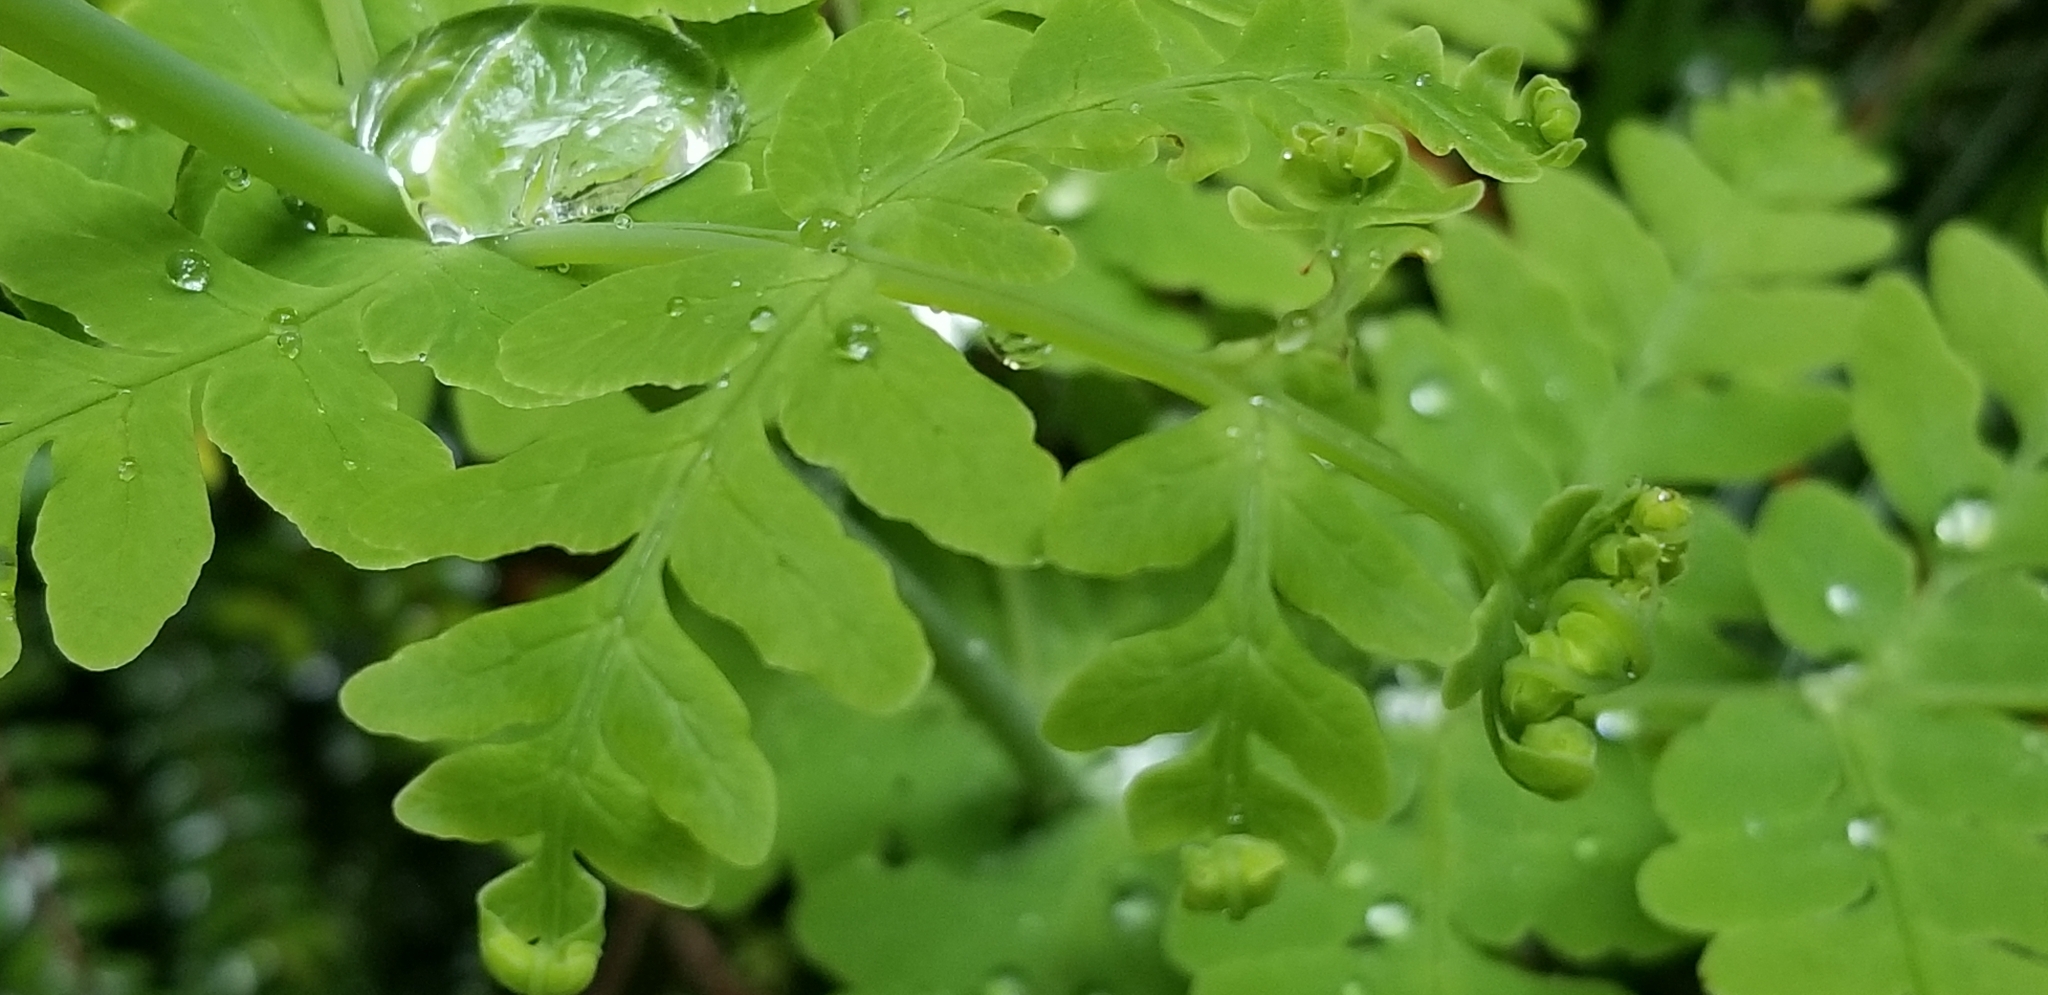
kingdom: Plantae
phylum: Tracheophyta
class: Polypodiopsida
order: Polypodiales
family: Dennstaedtiaceae
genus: Histiopteris
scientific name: Histiopteris incisa
